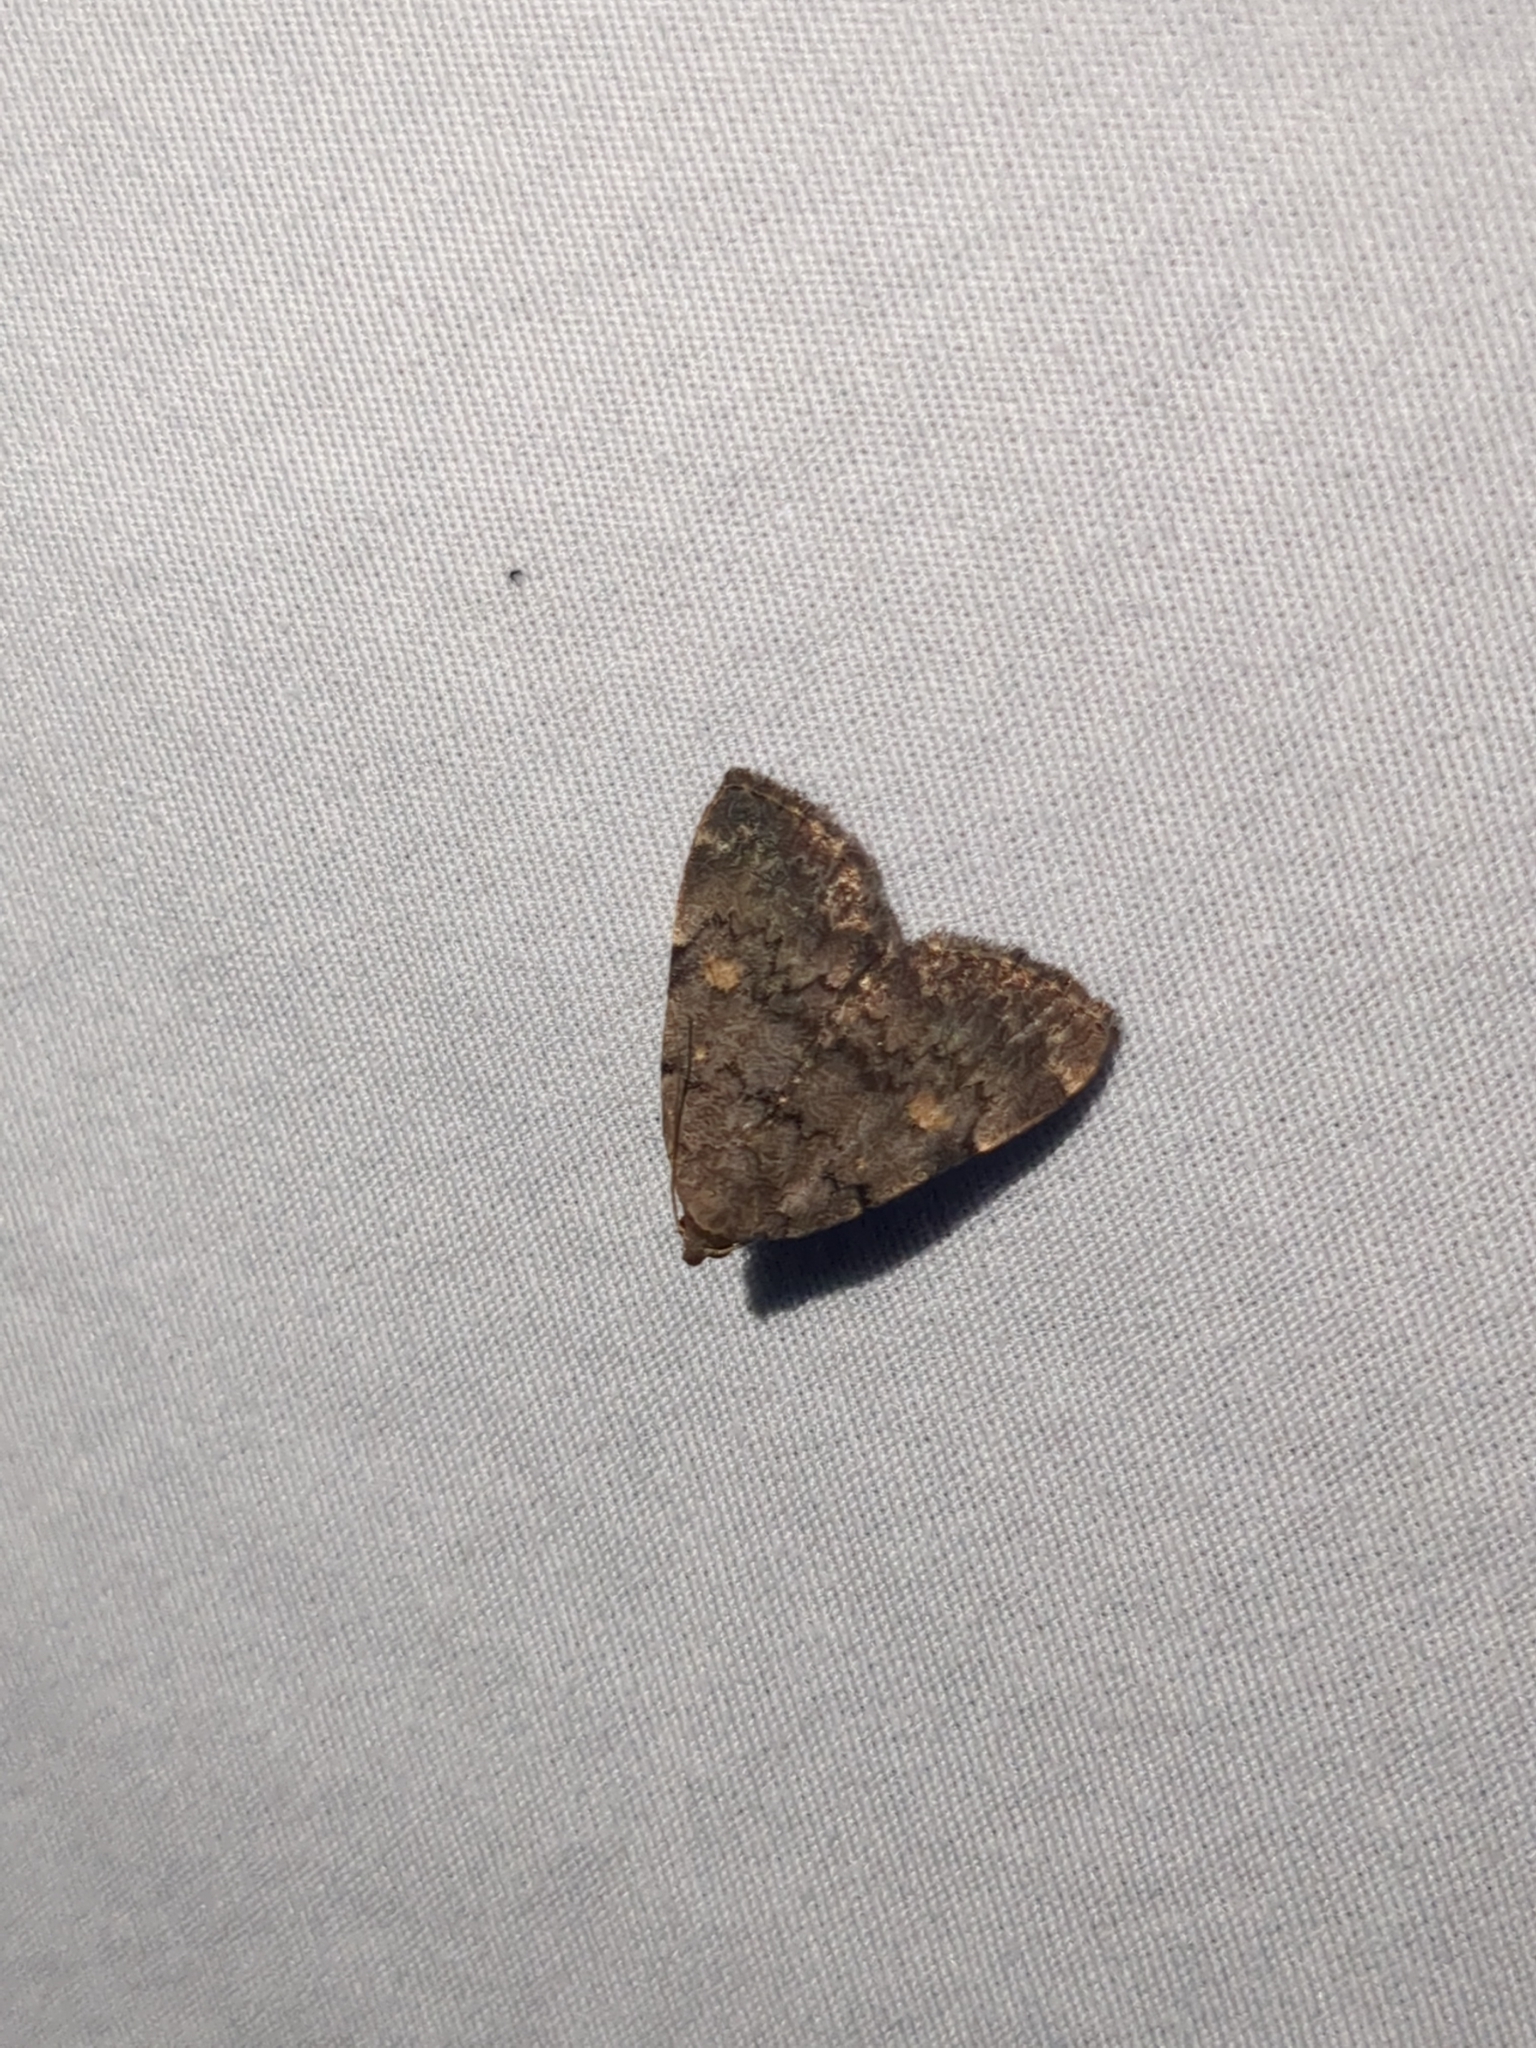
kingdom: Animalia
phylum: Arthropoda
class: Insecta
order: Lepidoptera
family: Erebidae
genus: Idia
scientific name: Idia aemula
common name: Common idia moth
